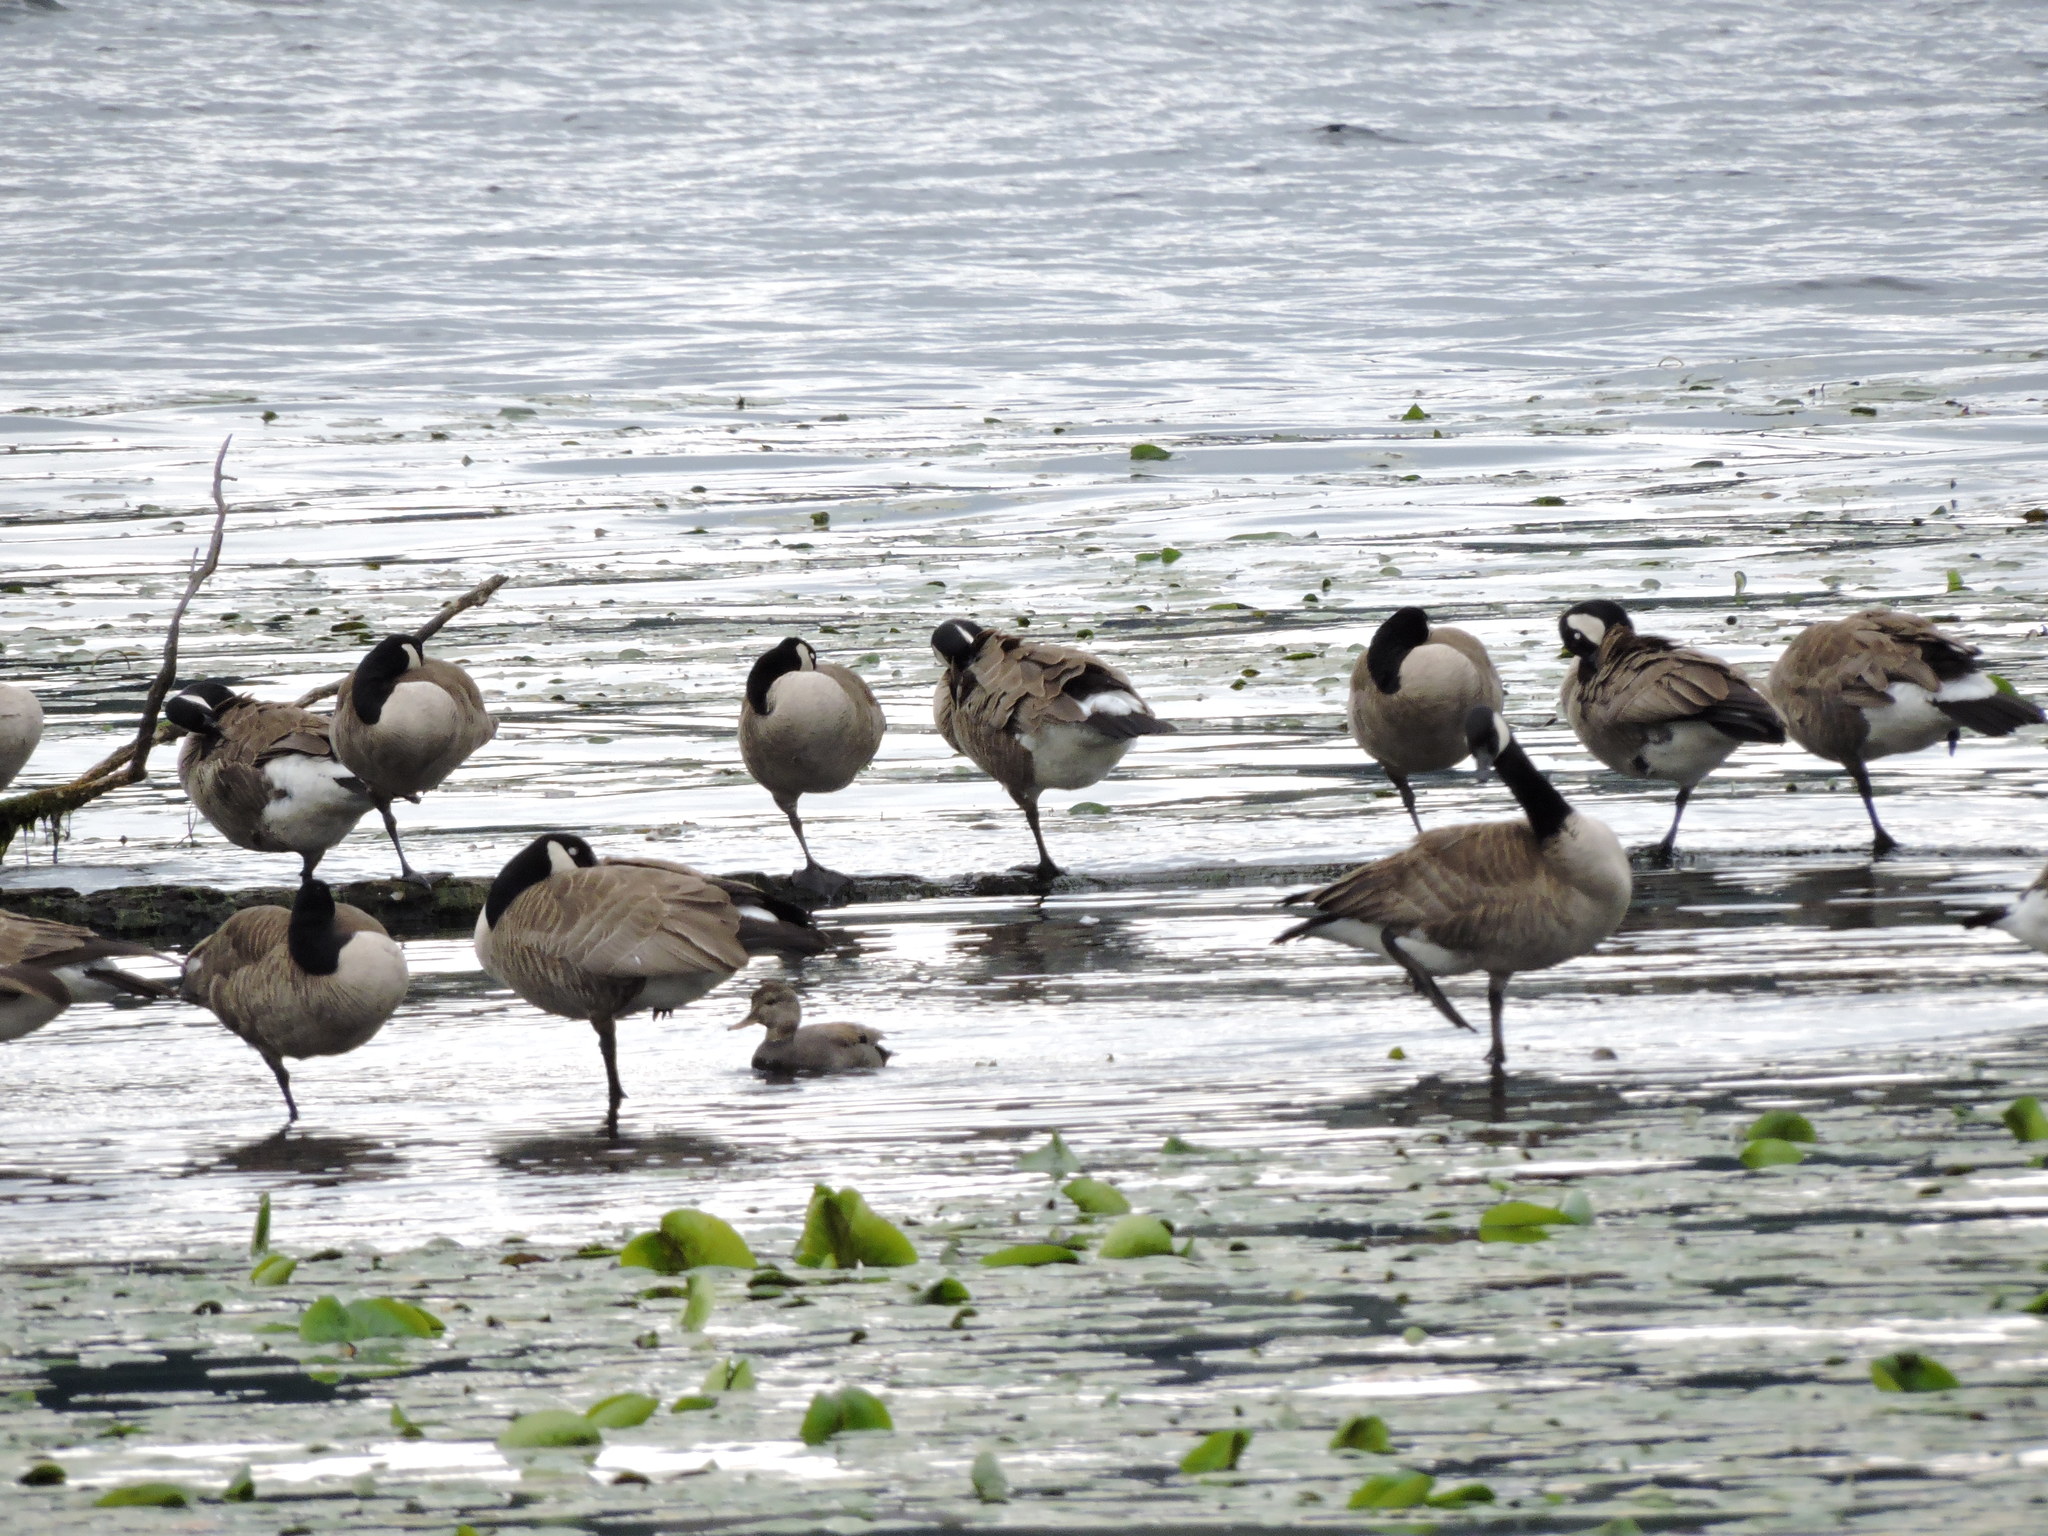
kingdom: Animalia
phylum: Chordata
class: Aves
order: Anseriformes
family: Anatidae
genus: Branta
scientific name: Branta canadensis
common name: Canada goose
